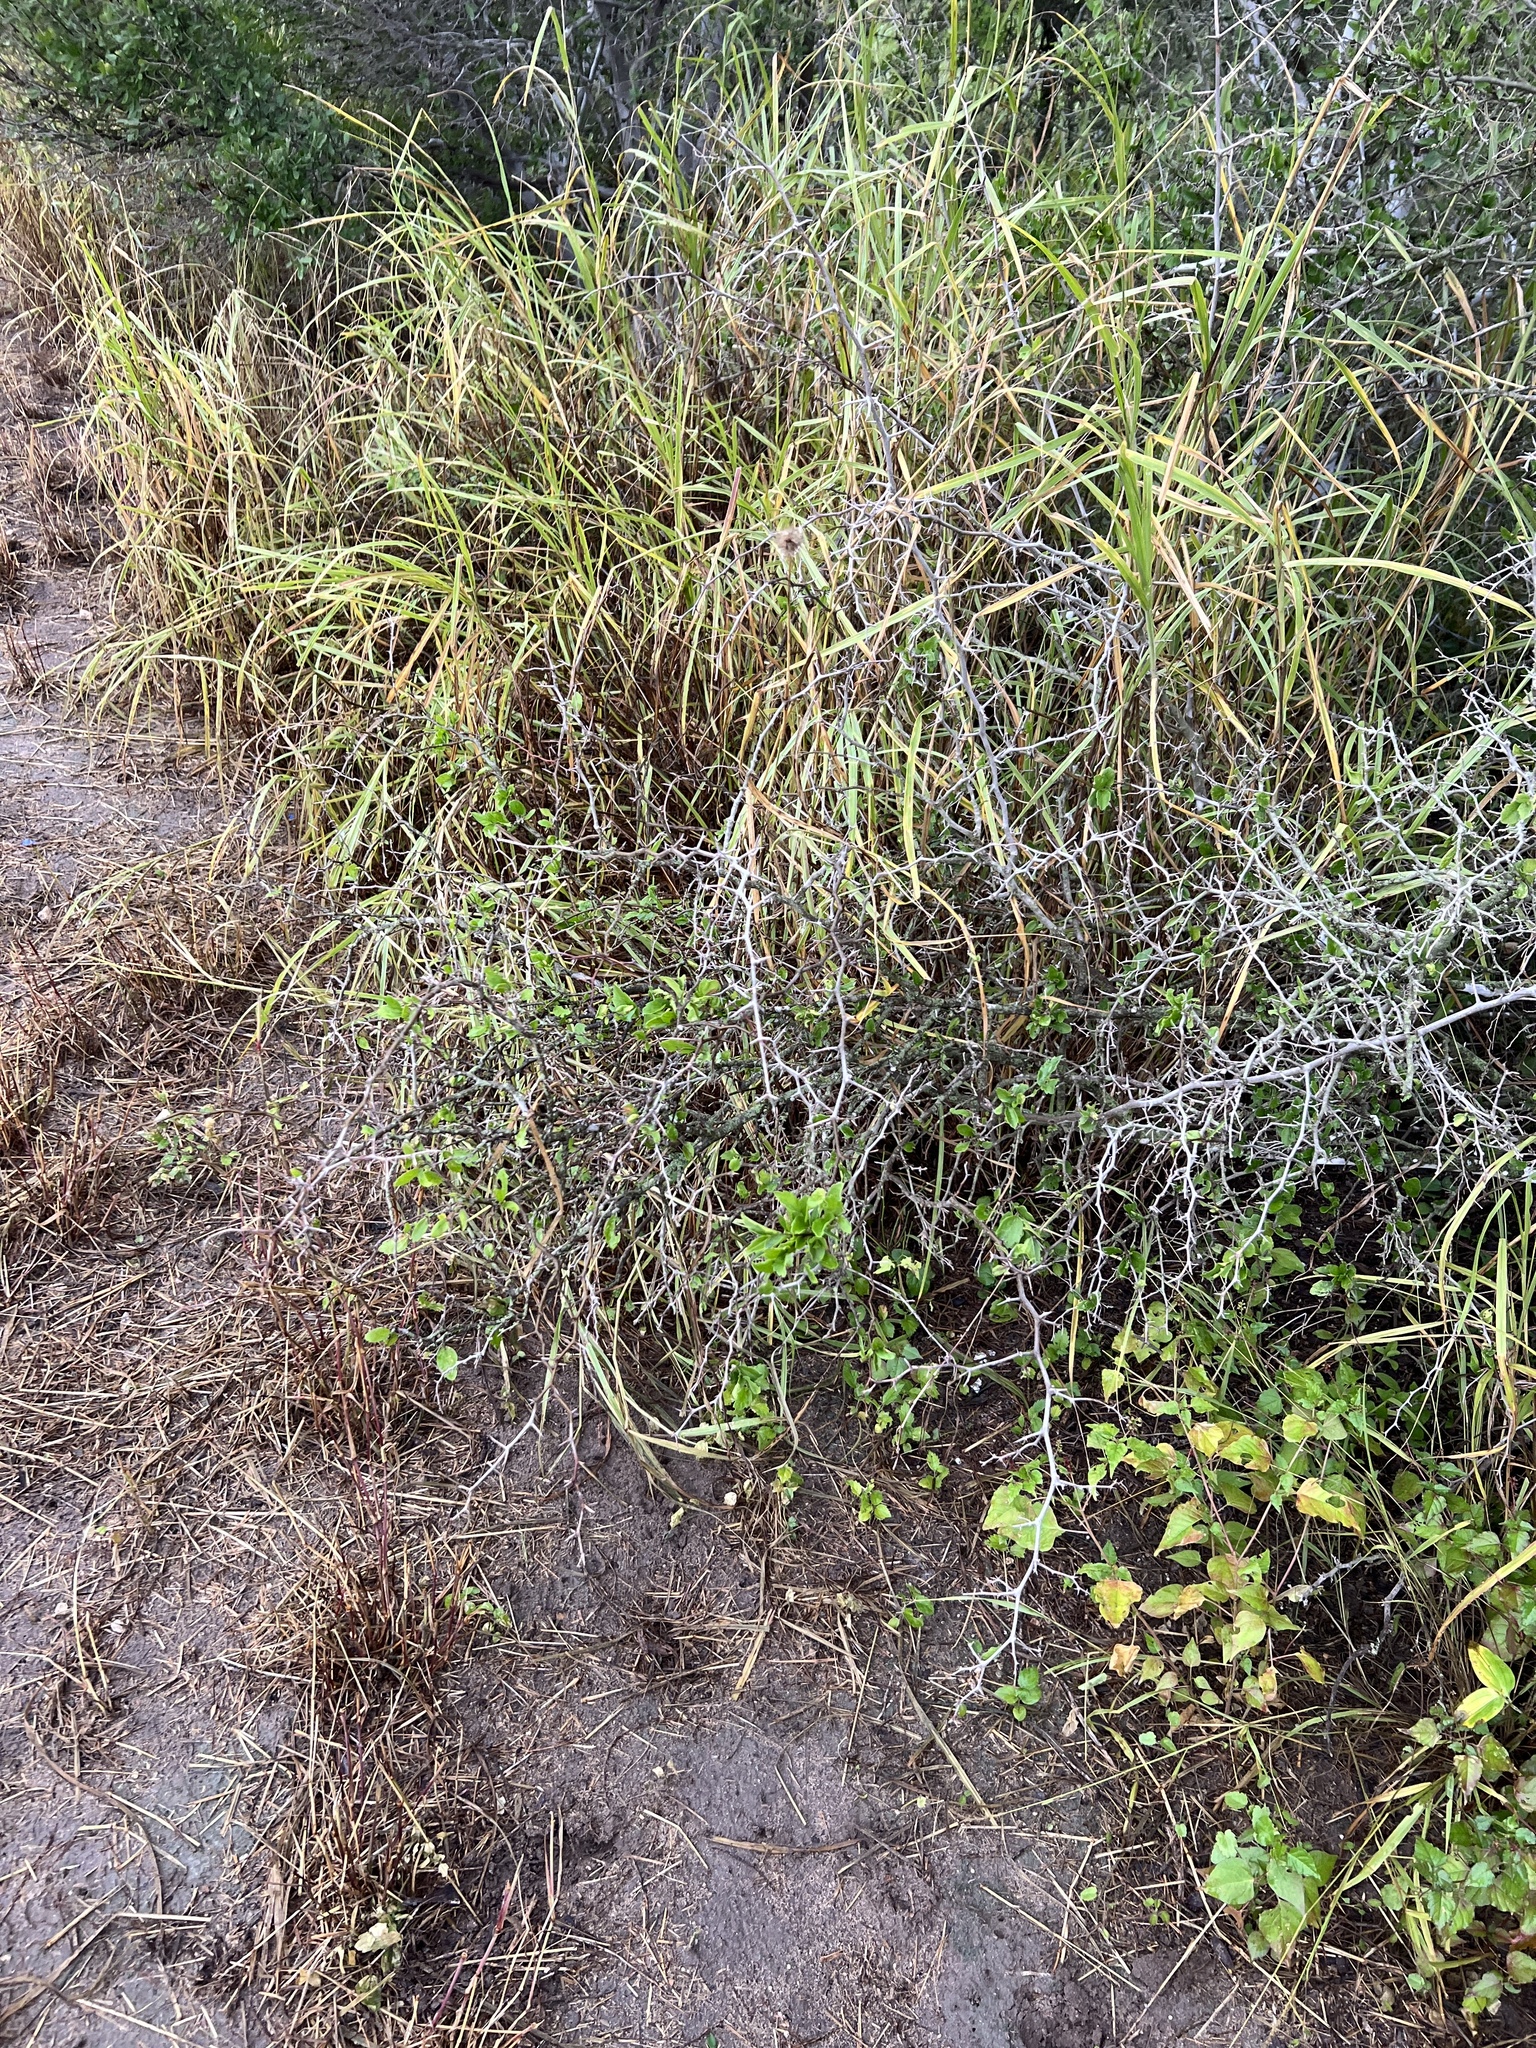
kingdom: Plantae
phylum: Tracheophyta
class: Magnoliopsida
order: Rosales
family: Cannabaceae
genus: Celtis
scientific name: Celtis pallida
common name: Desert hackberry
